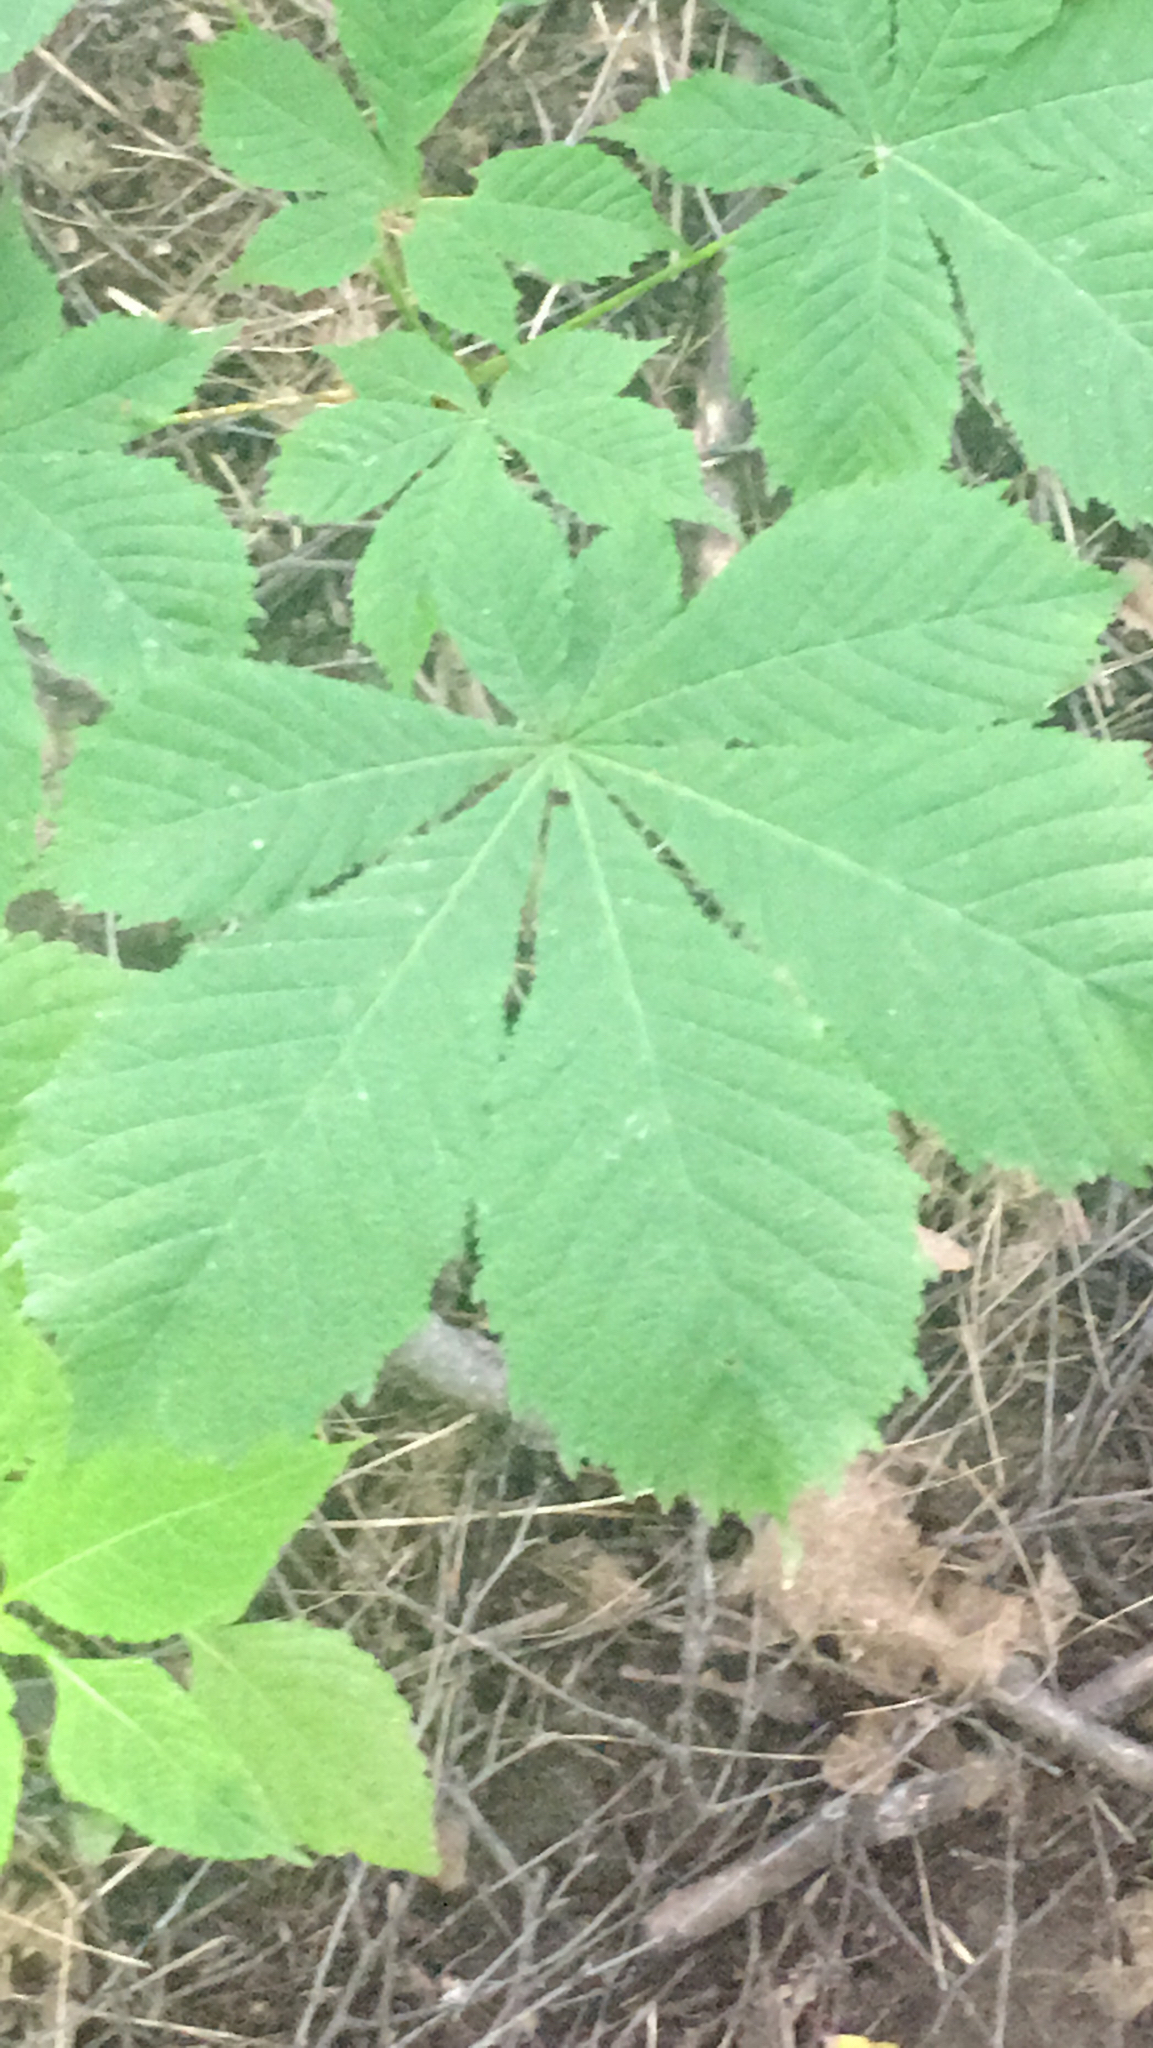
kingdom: Plantae
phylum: Tracheophyta
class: Magnoliopsida
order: Sapindales
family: Sapindaceae
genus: Aesculus
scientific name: Aesculus hippocastanum
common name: Horse-chestnut
